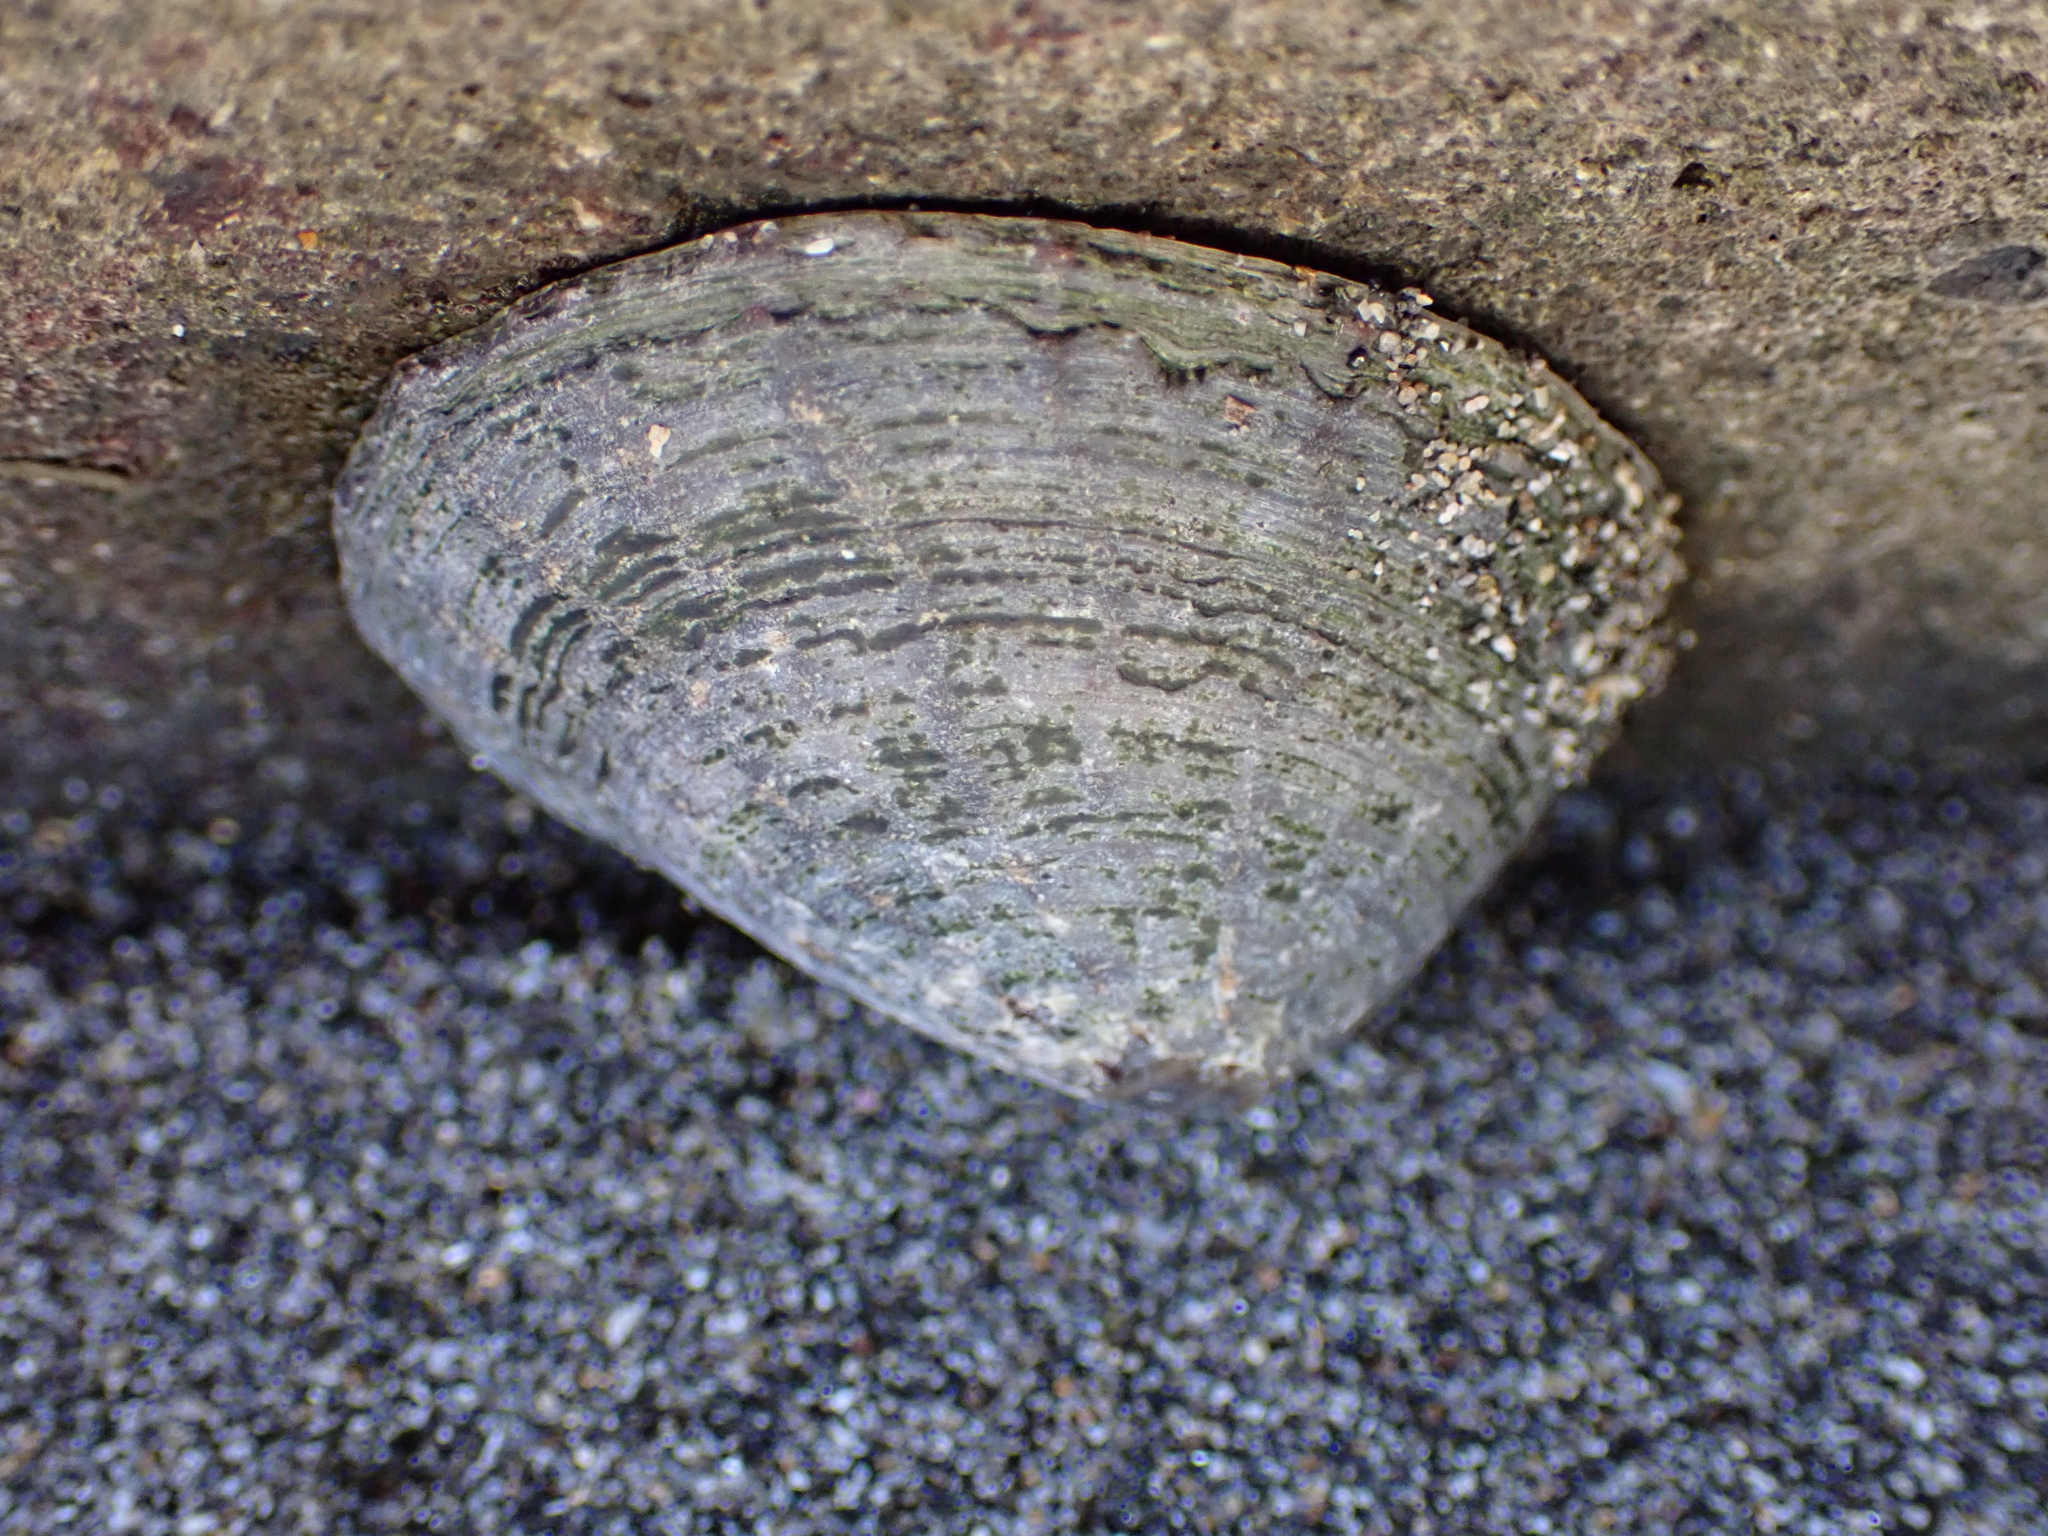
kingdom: Animalia
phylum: Mollusca
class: Gastropoda
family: Nacellidae
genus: Cellana
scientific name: Cellana radians
